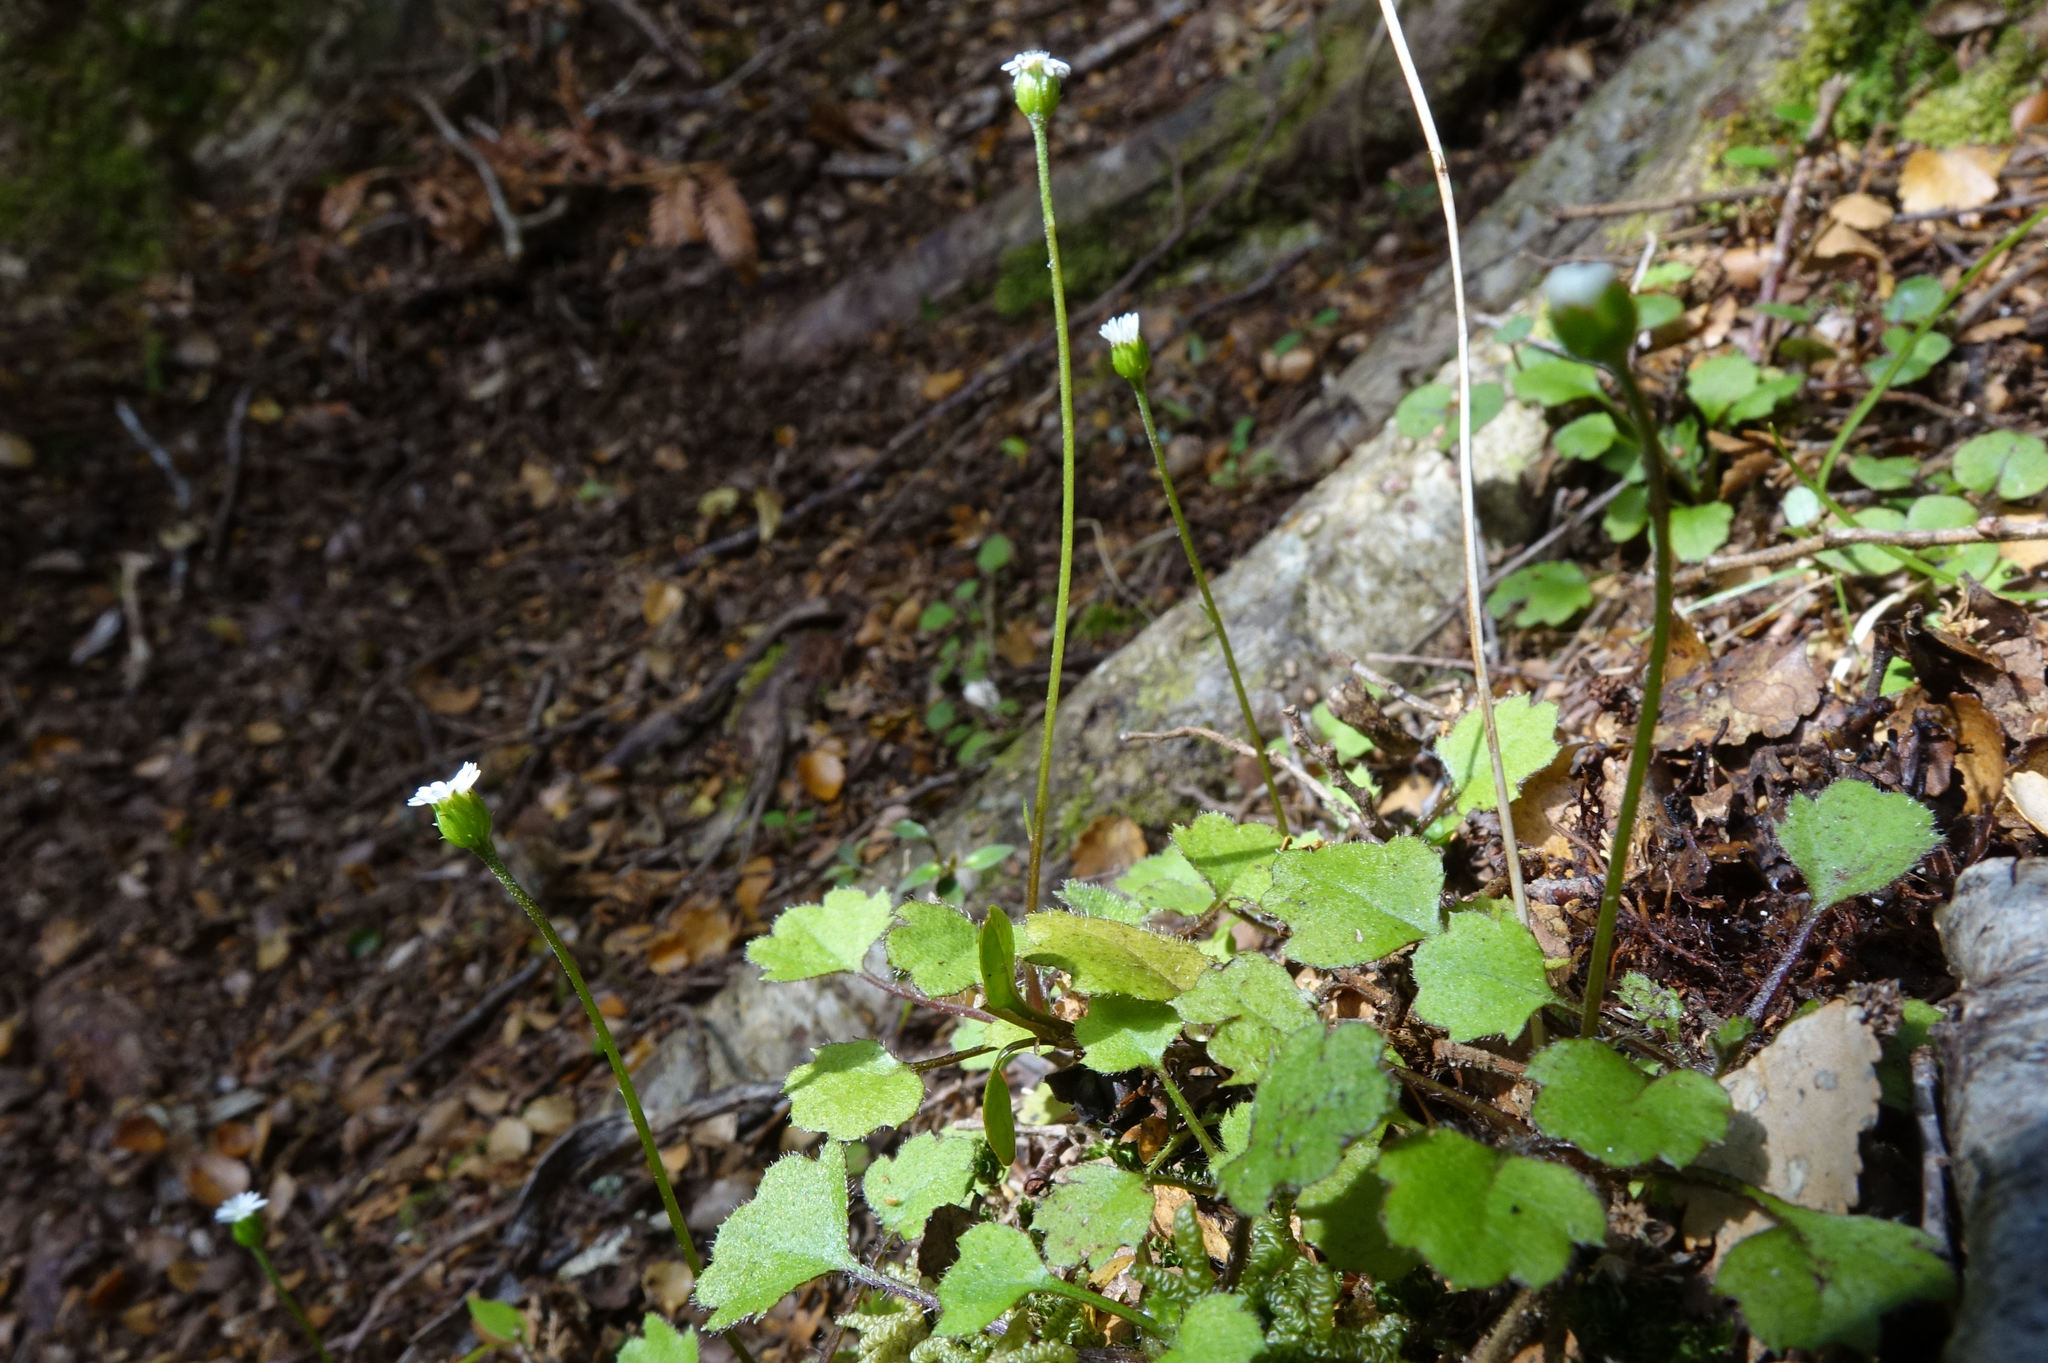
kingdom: Plantae
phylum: Tracheophyta
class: Magnoliopsida
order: Asterales
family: Asteraceae
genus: Lagenophora
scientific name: Lagenophora strangulata
